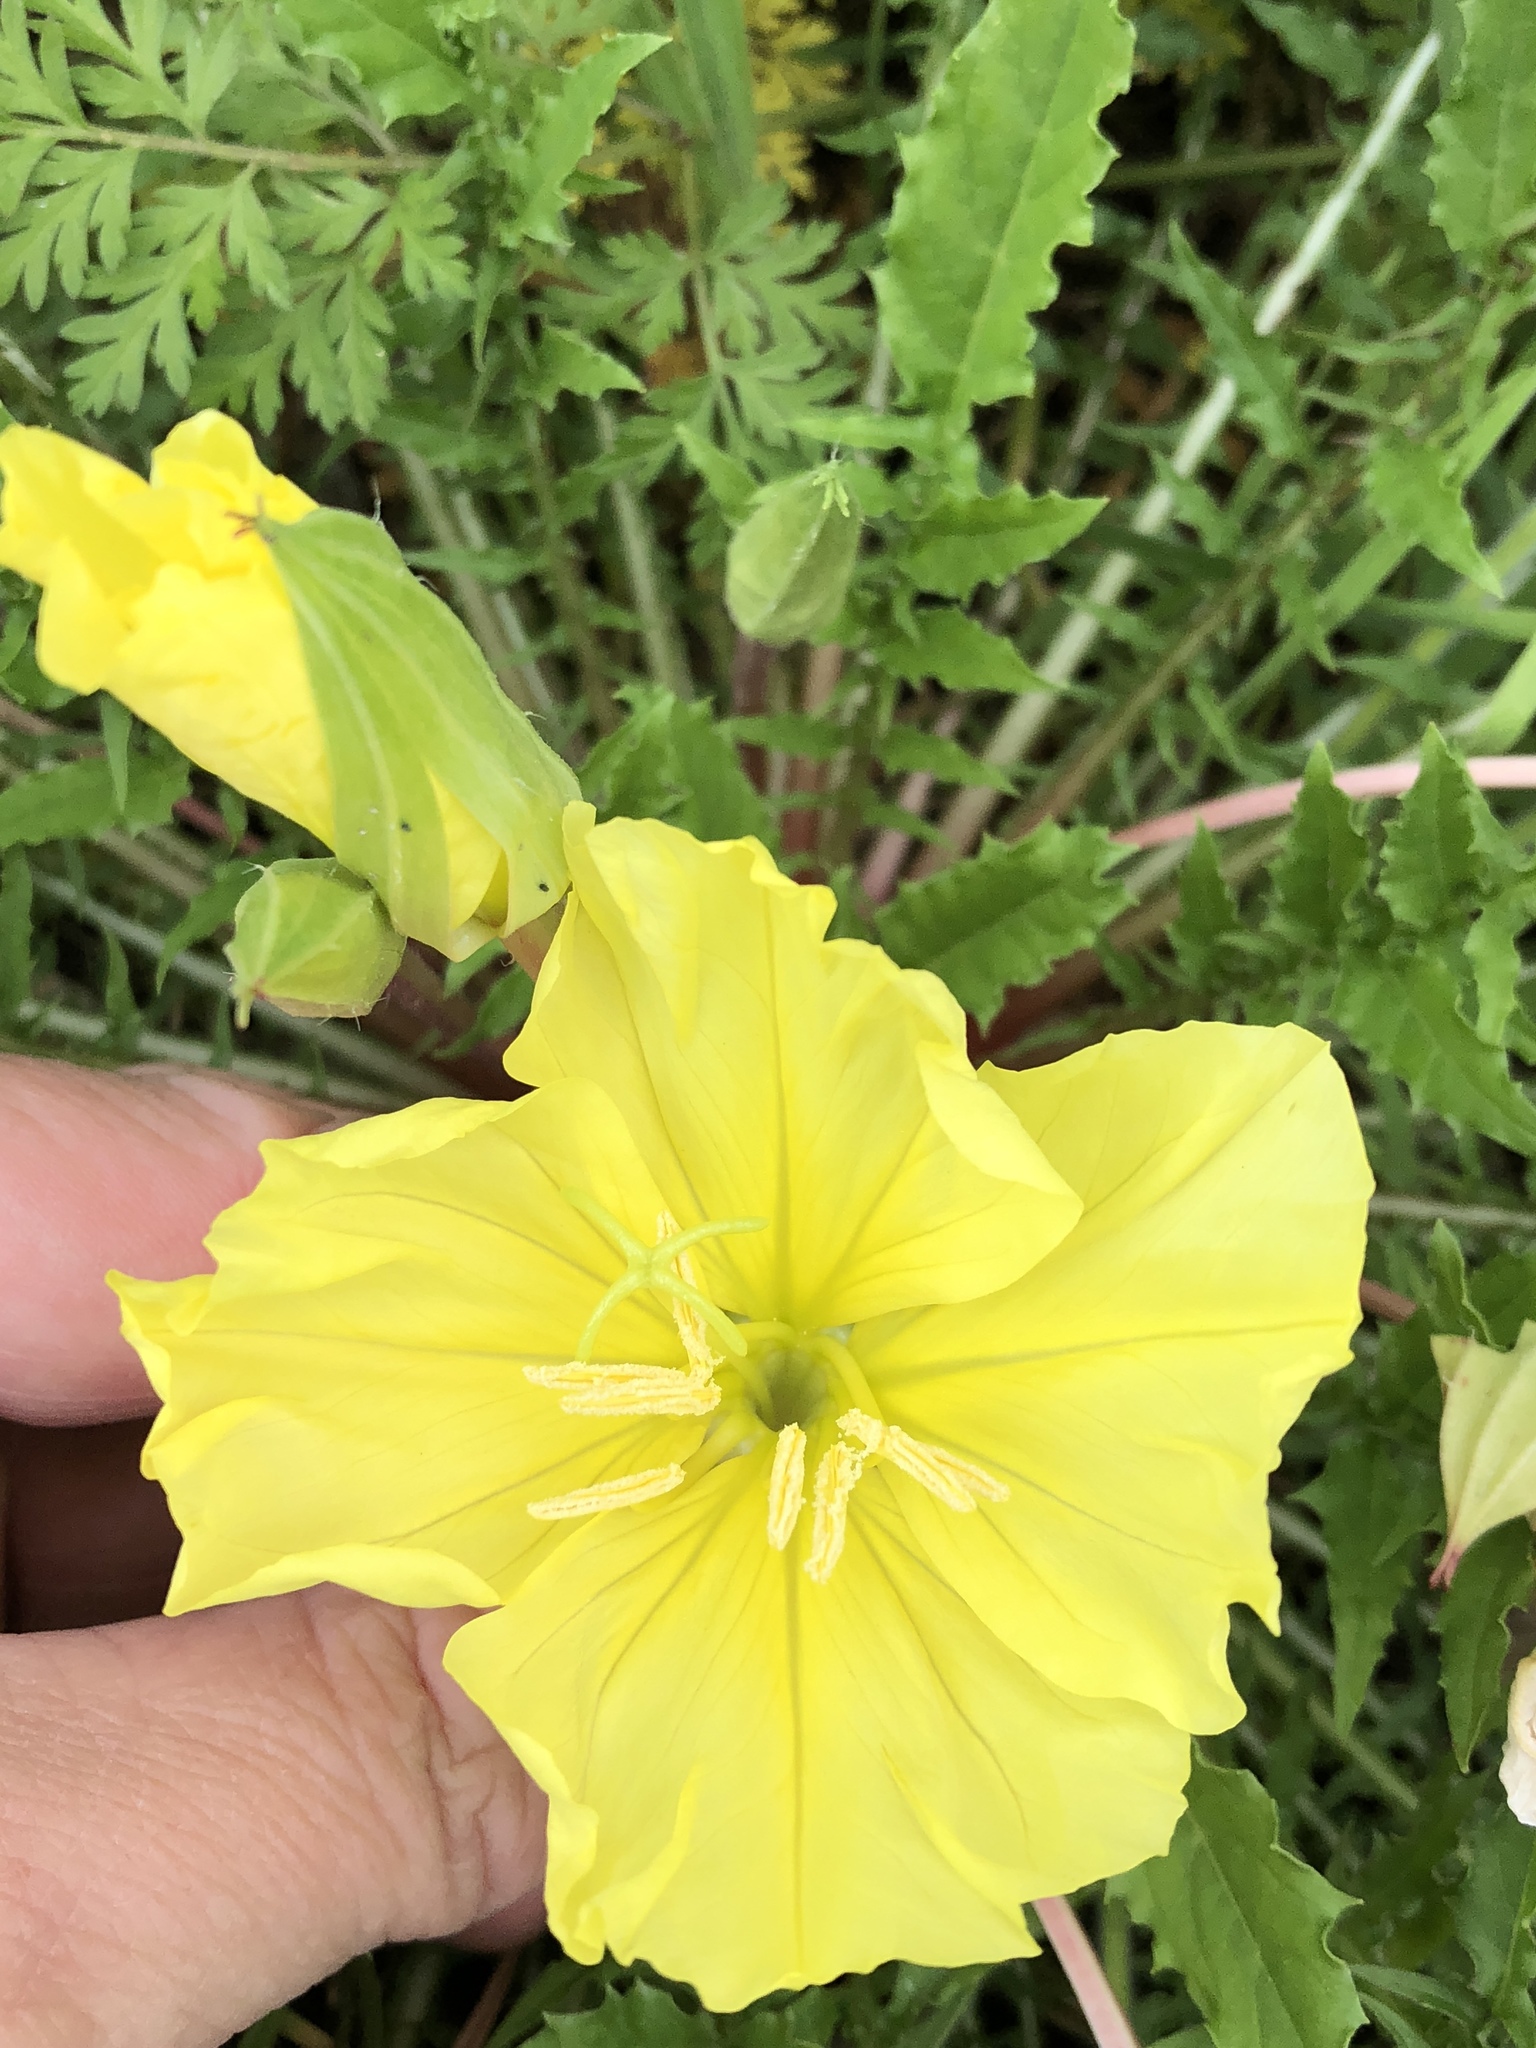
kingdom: Plantae
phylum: Tracheophyta
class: Magnoliopsida
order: Myrtales
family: Onagraceae
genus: Oenothera
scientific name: Oenothera triloba
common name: Sessile evening-primrose
